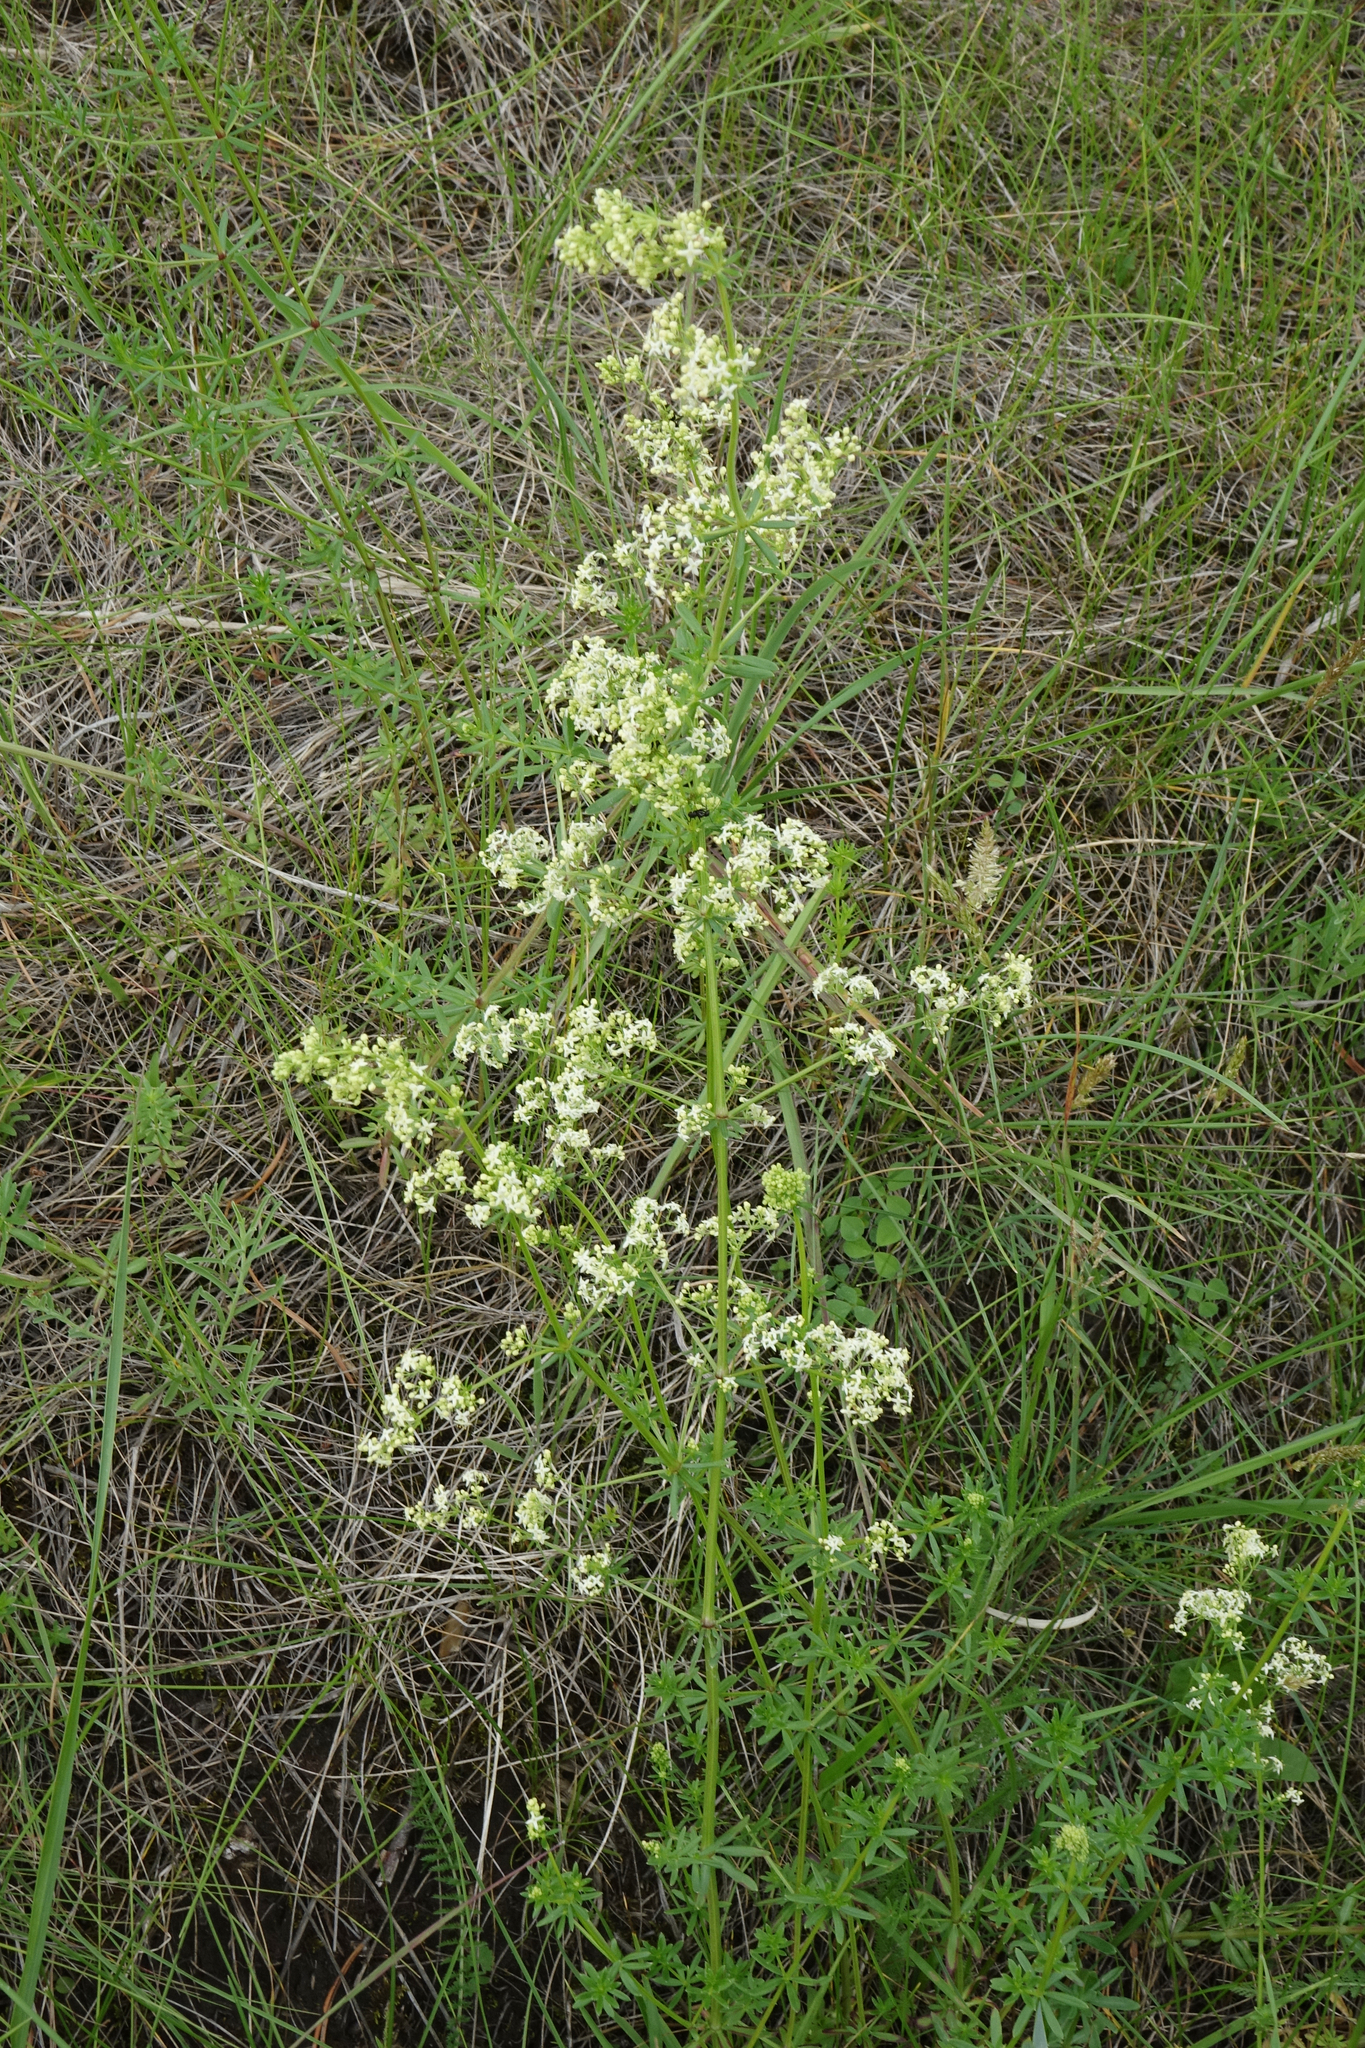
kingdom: Plantae
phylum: Tracheophyta
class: Magnoliopsida
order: Gentianales
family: Rubiaceae
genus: Galium
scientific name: Galium mollugo
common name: Hedge bedstraw
